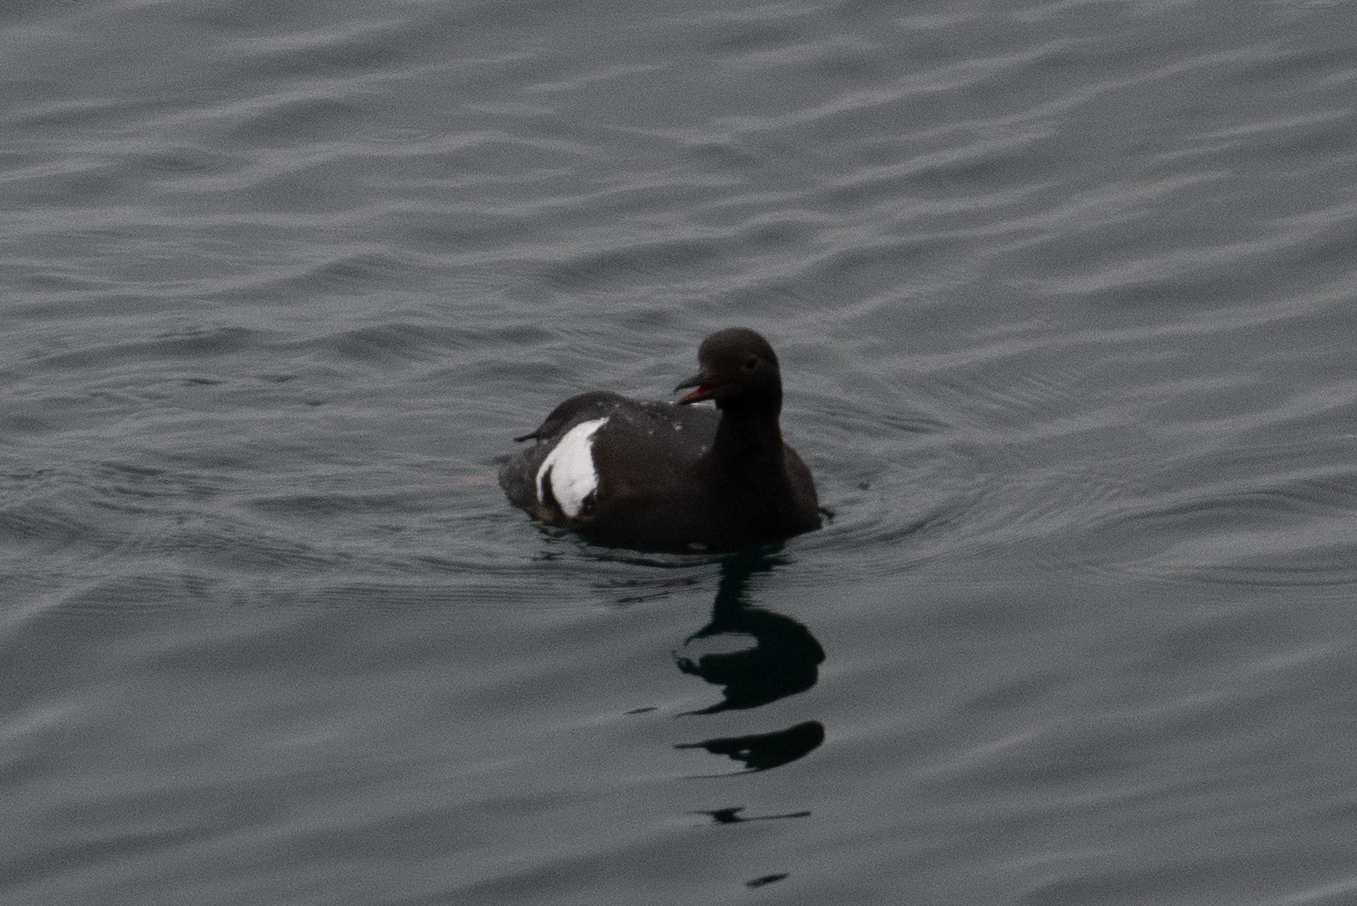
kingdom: Animalia
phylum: Chordata
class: Aves
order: Charadriiformes
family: Alcidae
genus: Cepphus
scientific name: Cepphus columba
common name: Pigeon guillemot
